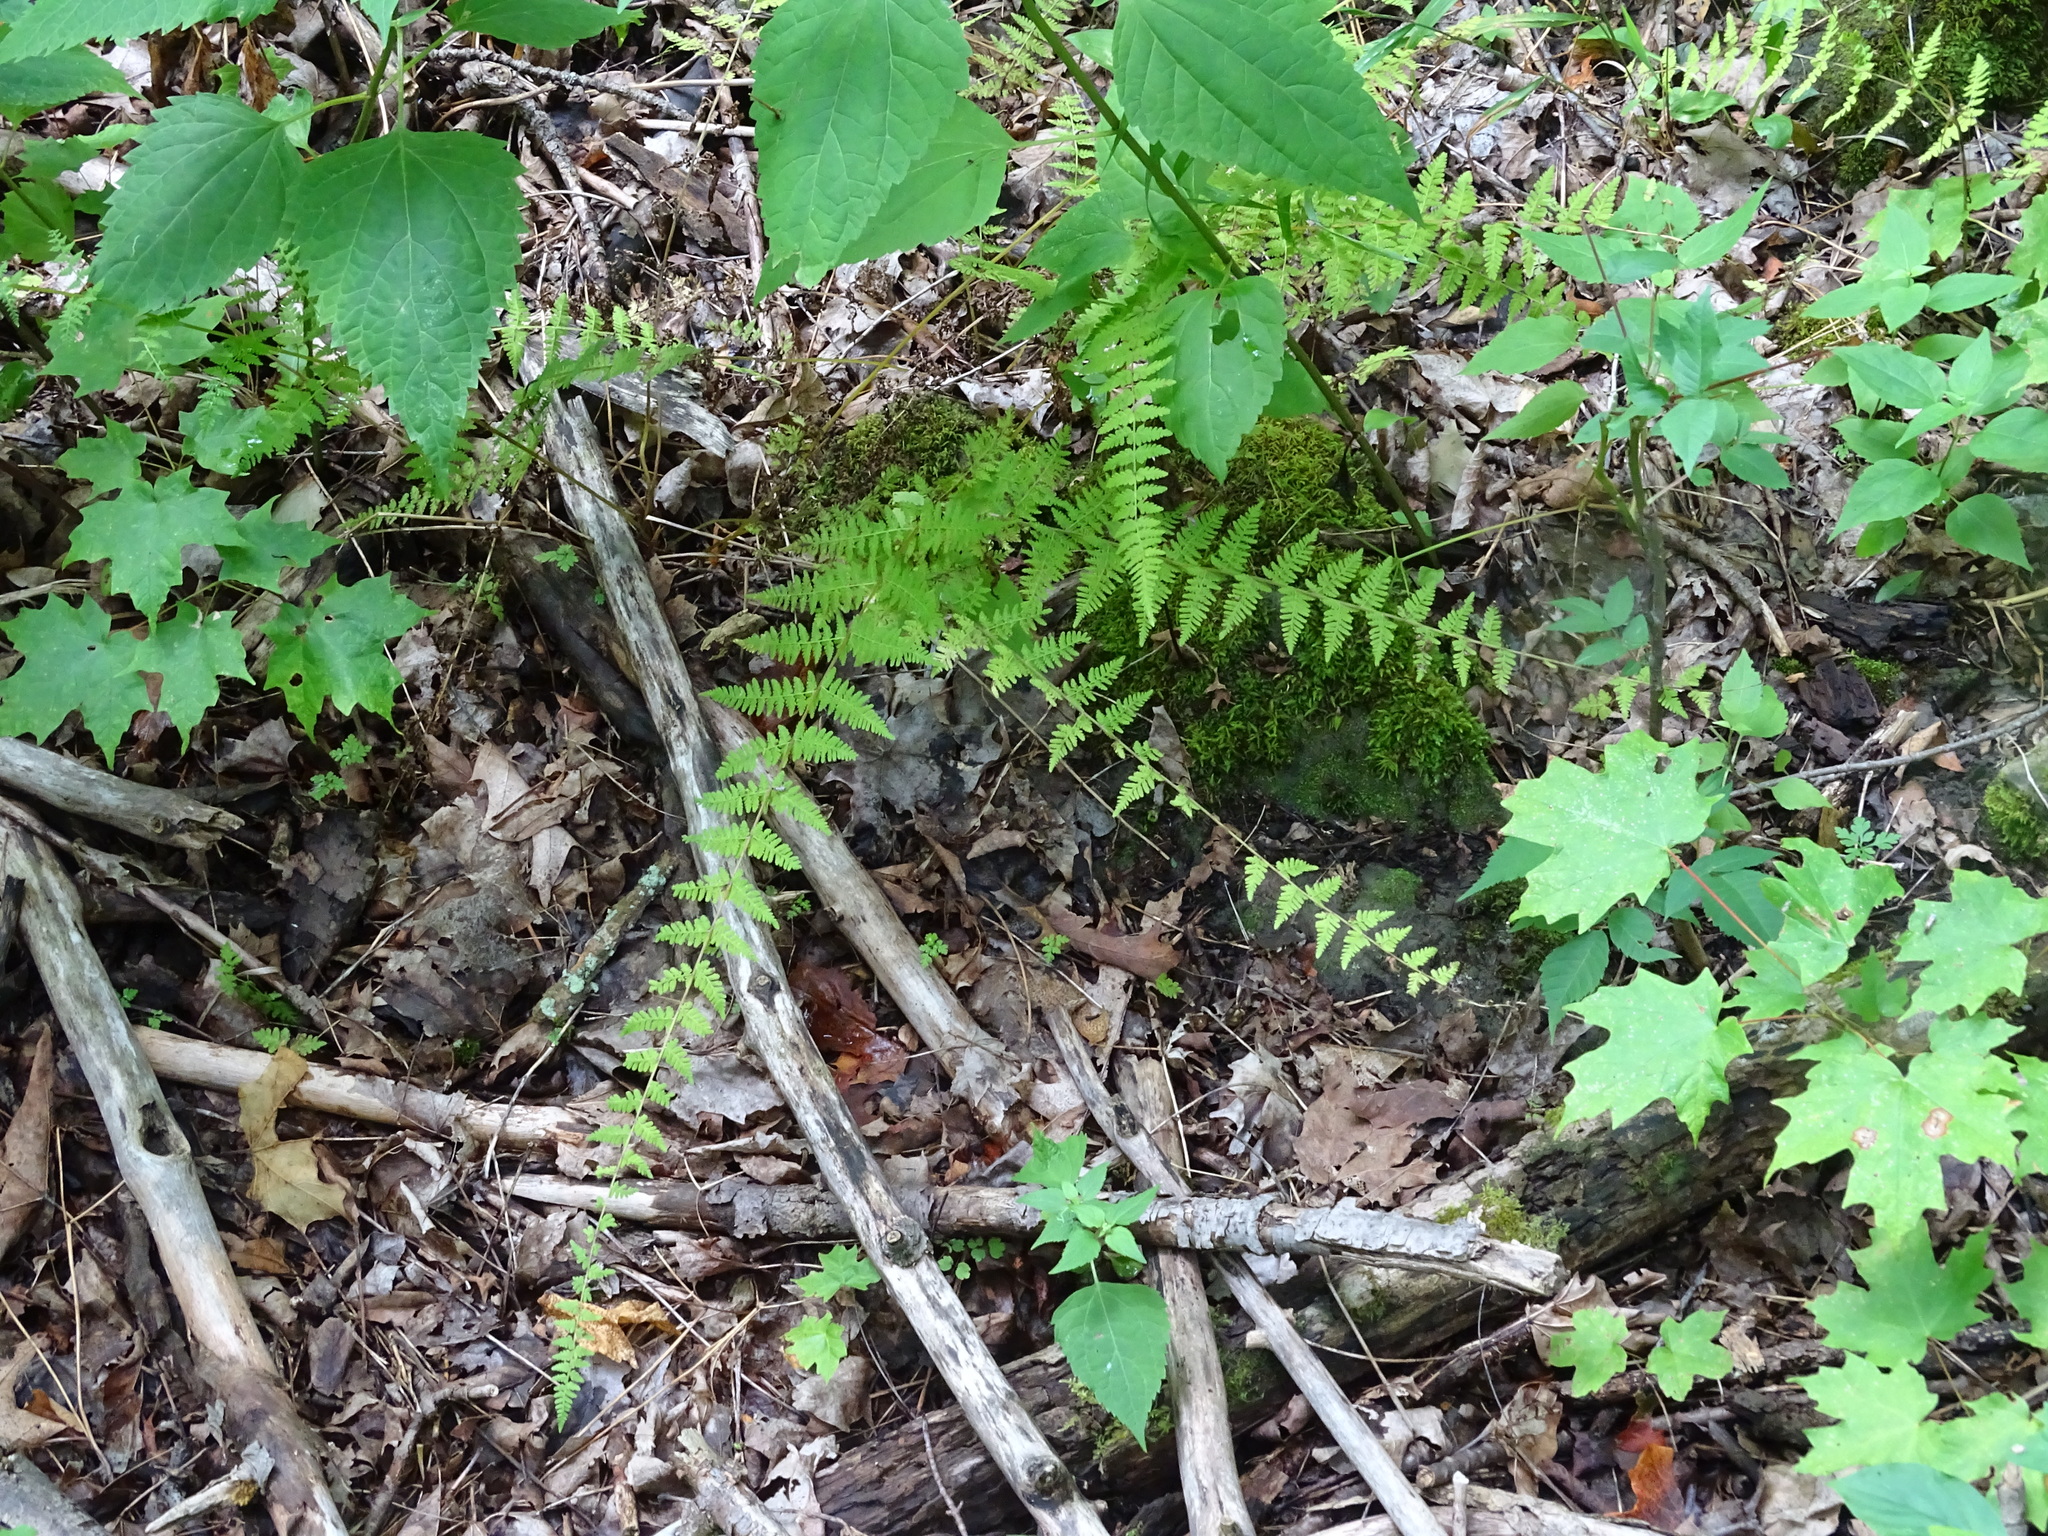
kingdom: Plantae
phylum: Tracheophyta
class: Polypodiopsida
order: Polypodiales
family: Cystopteridaceae
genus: Cystopteris
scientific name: Cystopteris bulbifera
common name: Bulblet bladder fern
